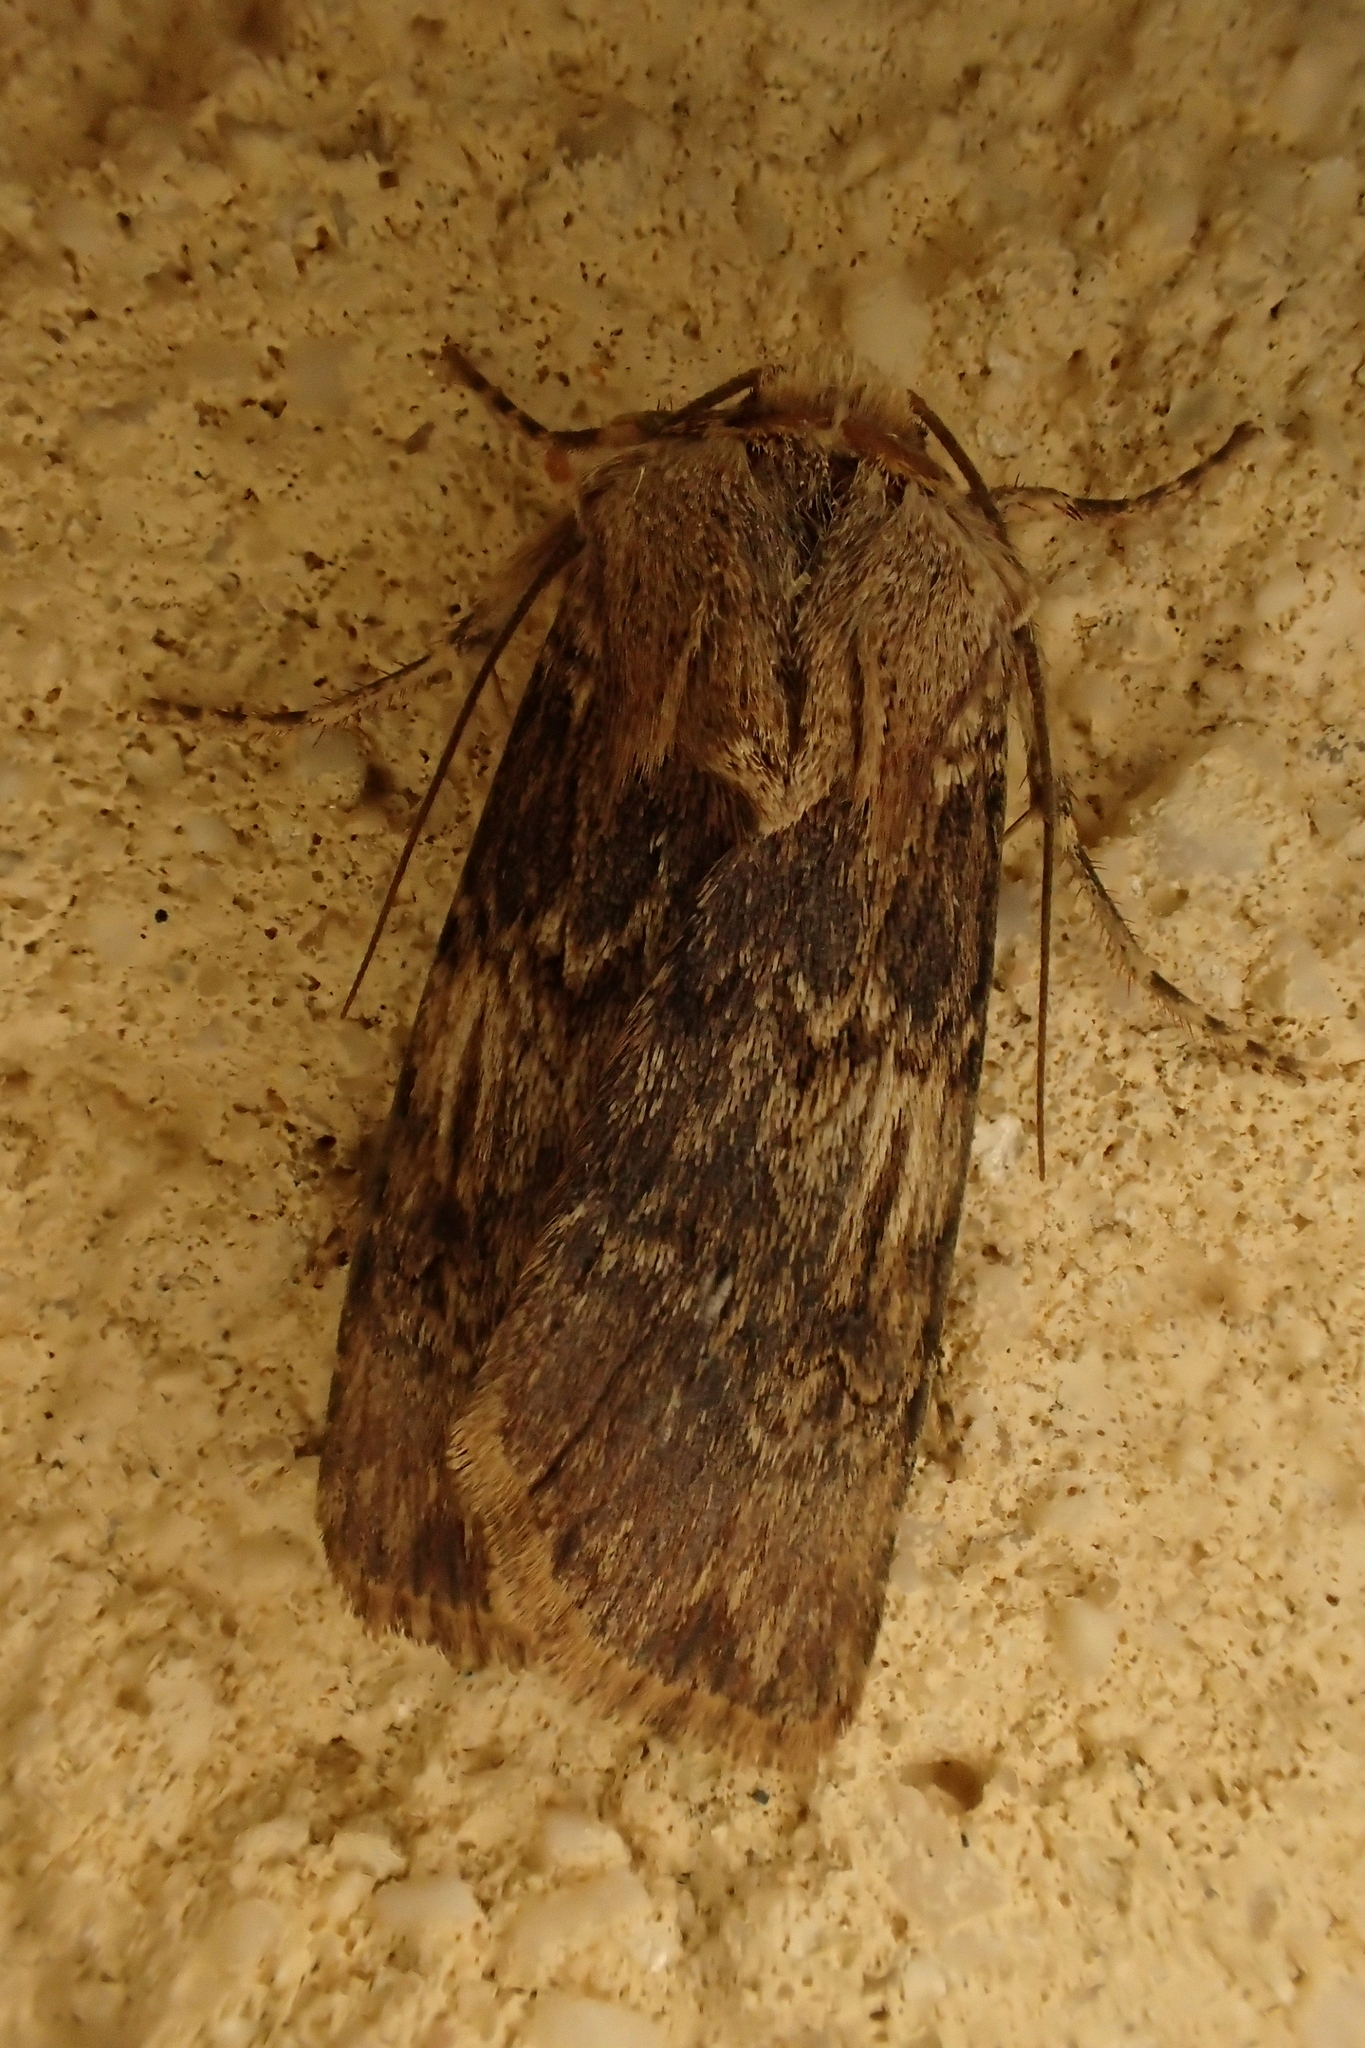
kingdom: Animalia
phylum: Arthropoda
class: Insecta
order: Lepidoptera
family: Noctuidae
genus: Agrotis
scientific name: Agrotis puta
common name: Shuttle-shaped dart
